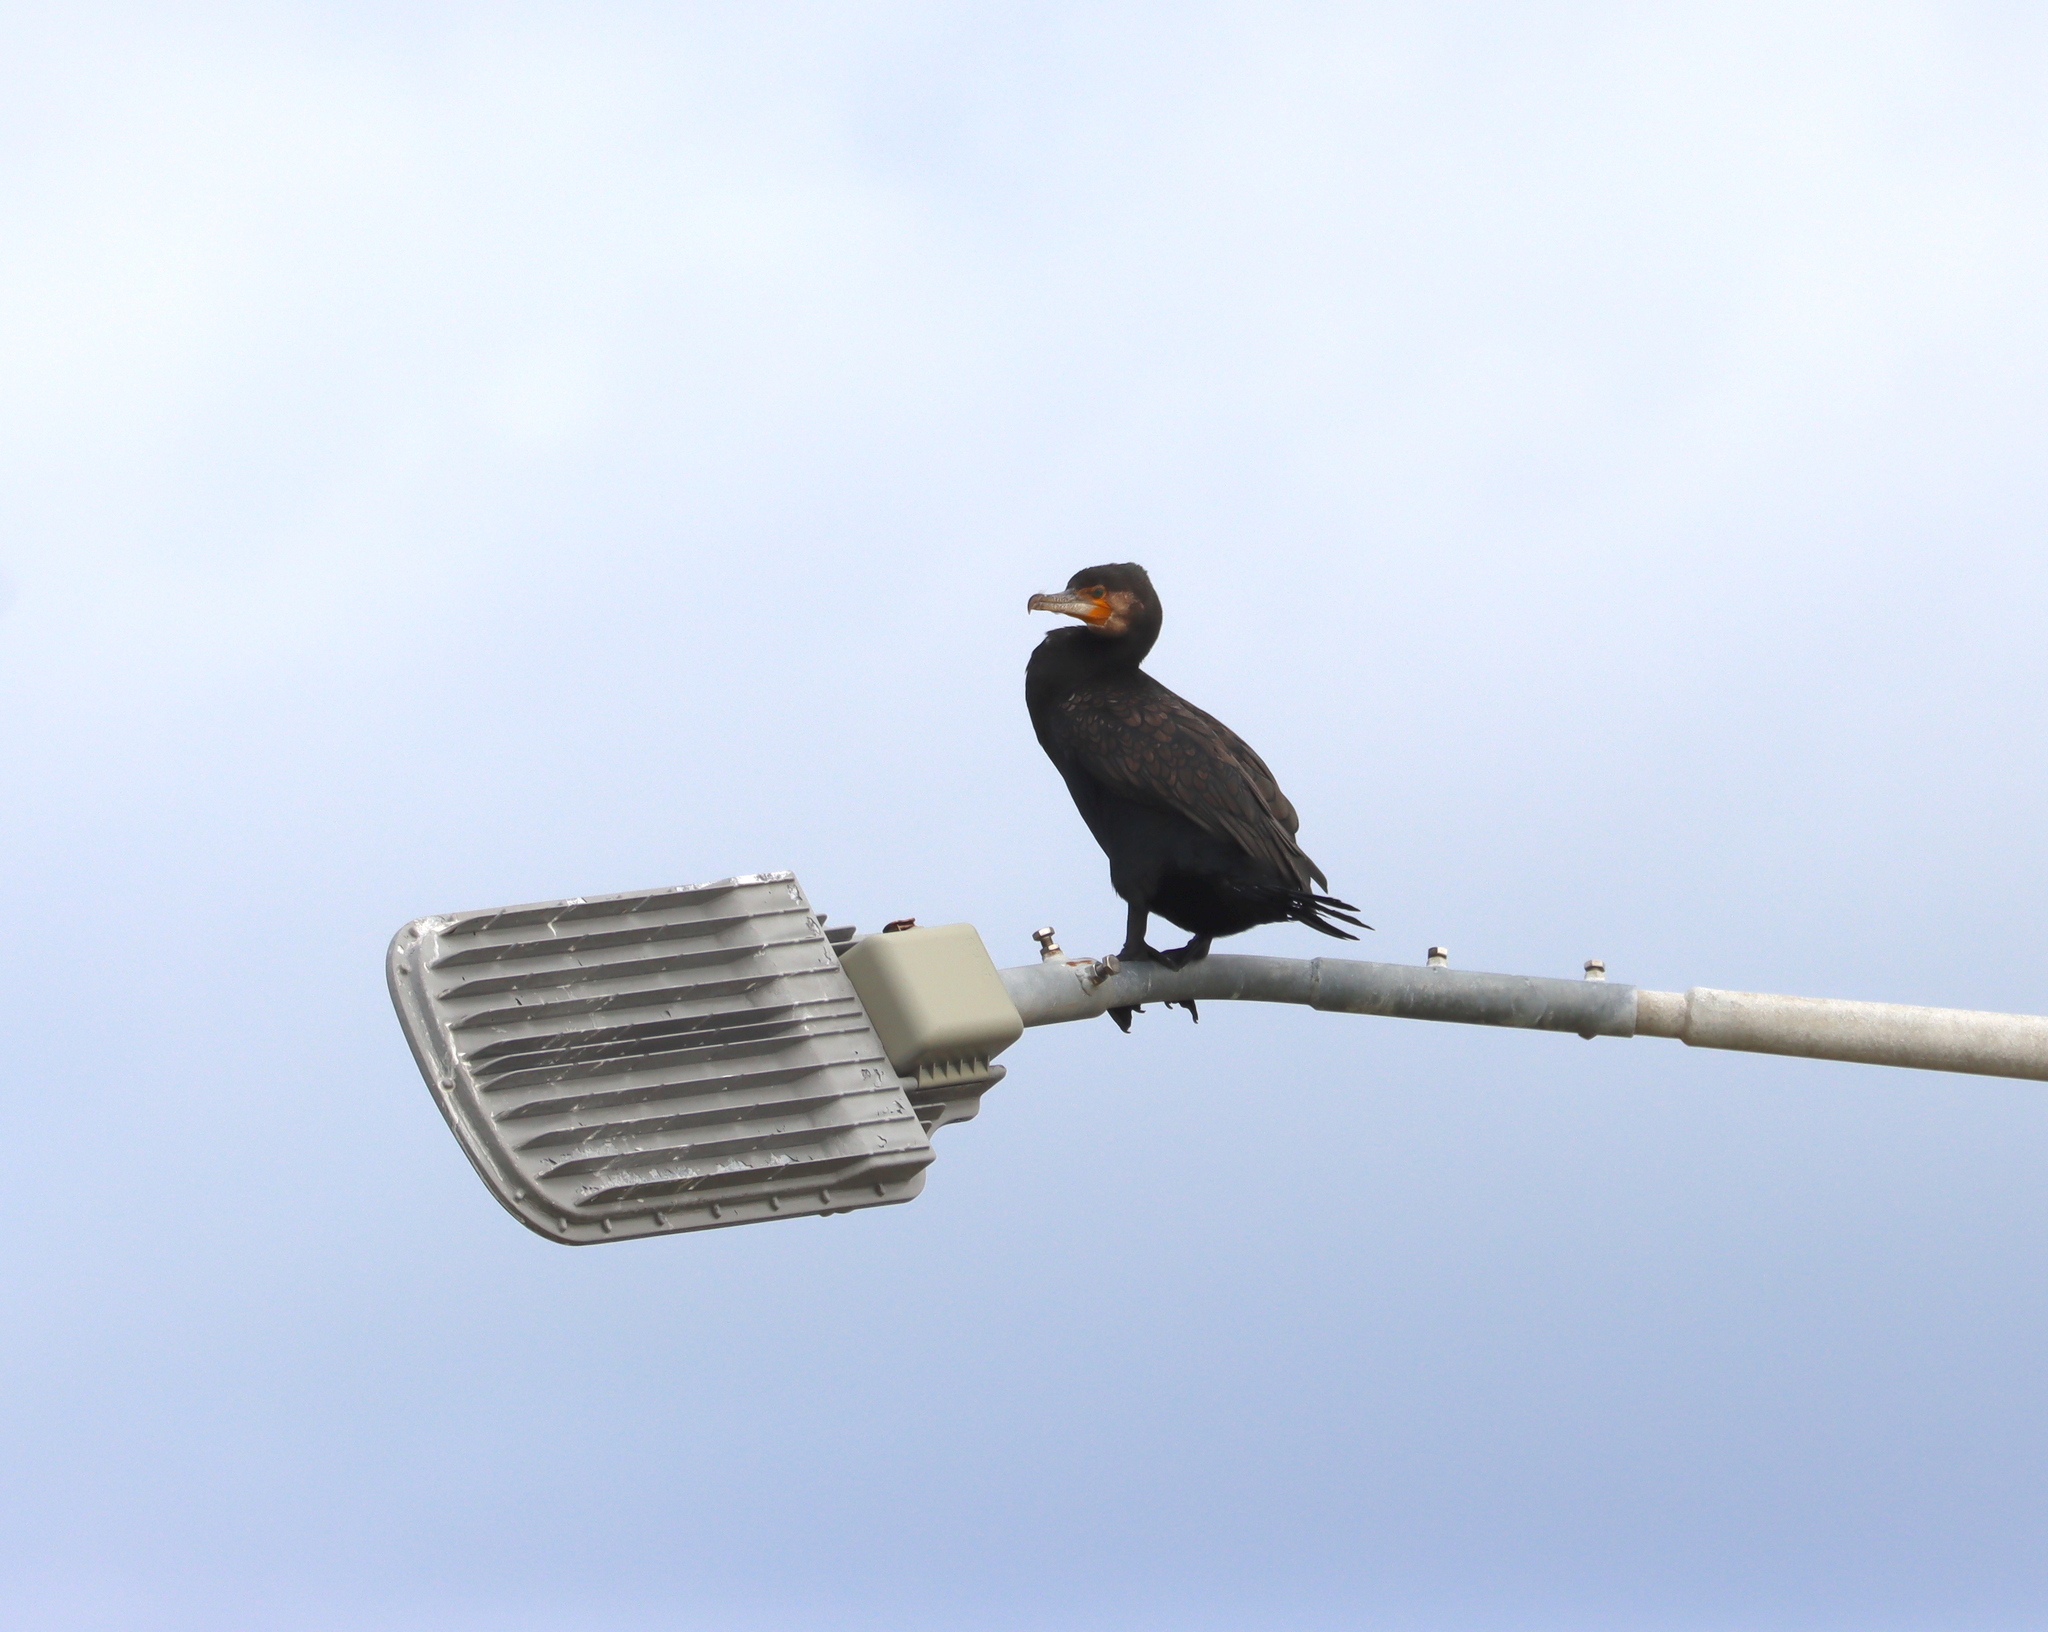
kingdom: Animalia
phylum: Chordata
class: Aves
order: Suliformes
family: Phalacrocoracidae
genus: Phalacrocorax
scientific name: Phalacrocorax carbo
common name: Great cormorant
